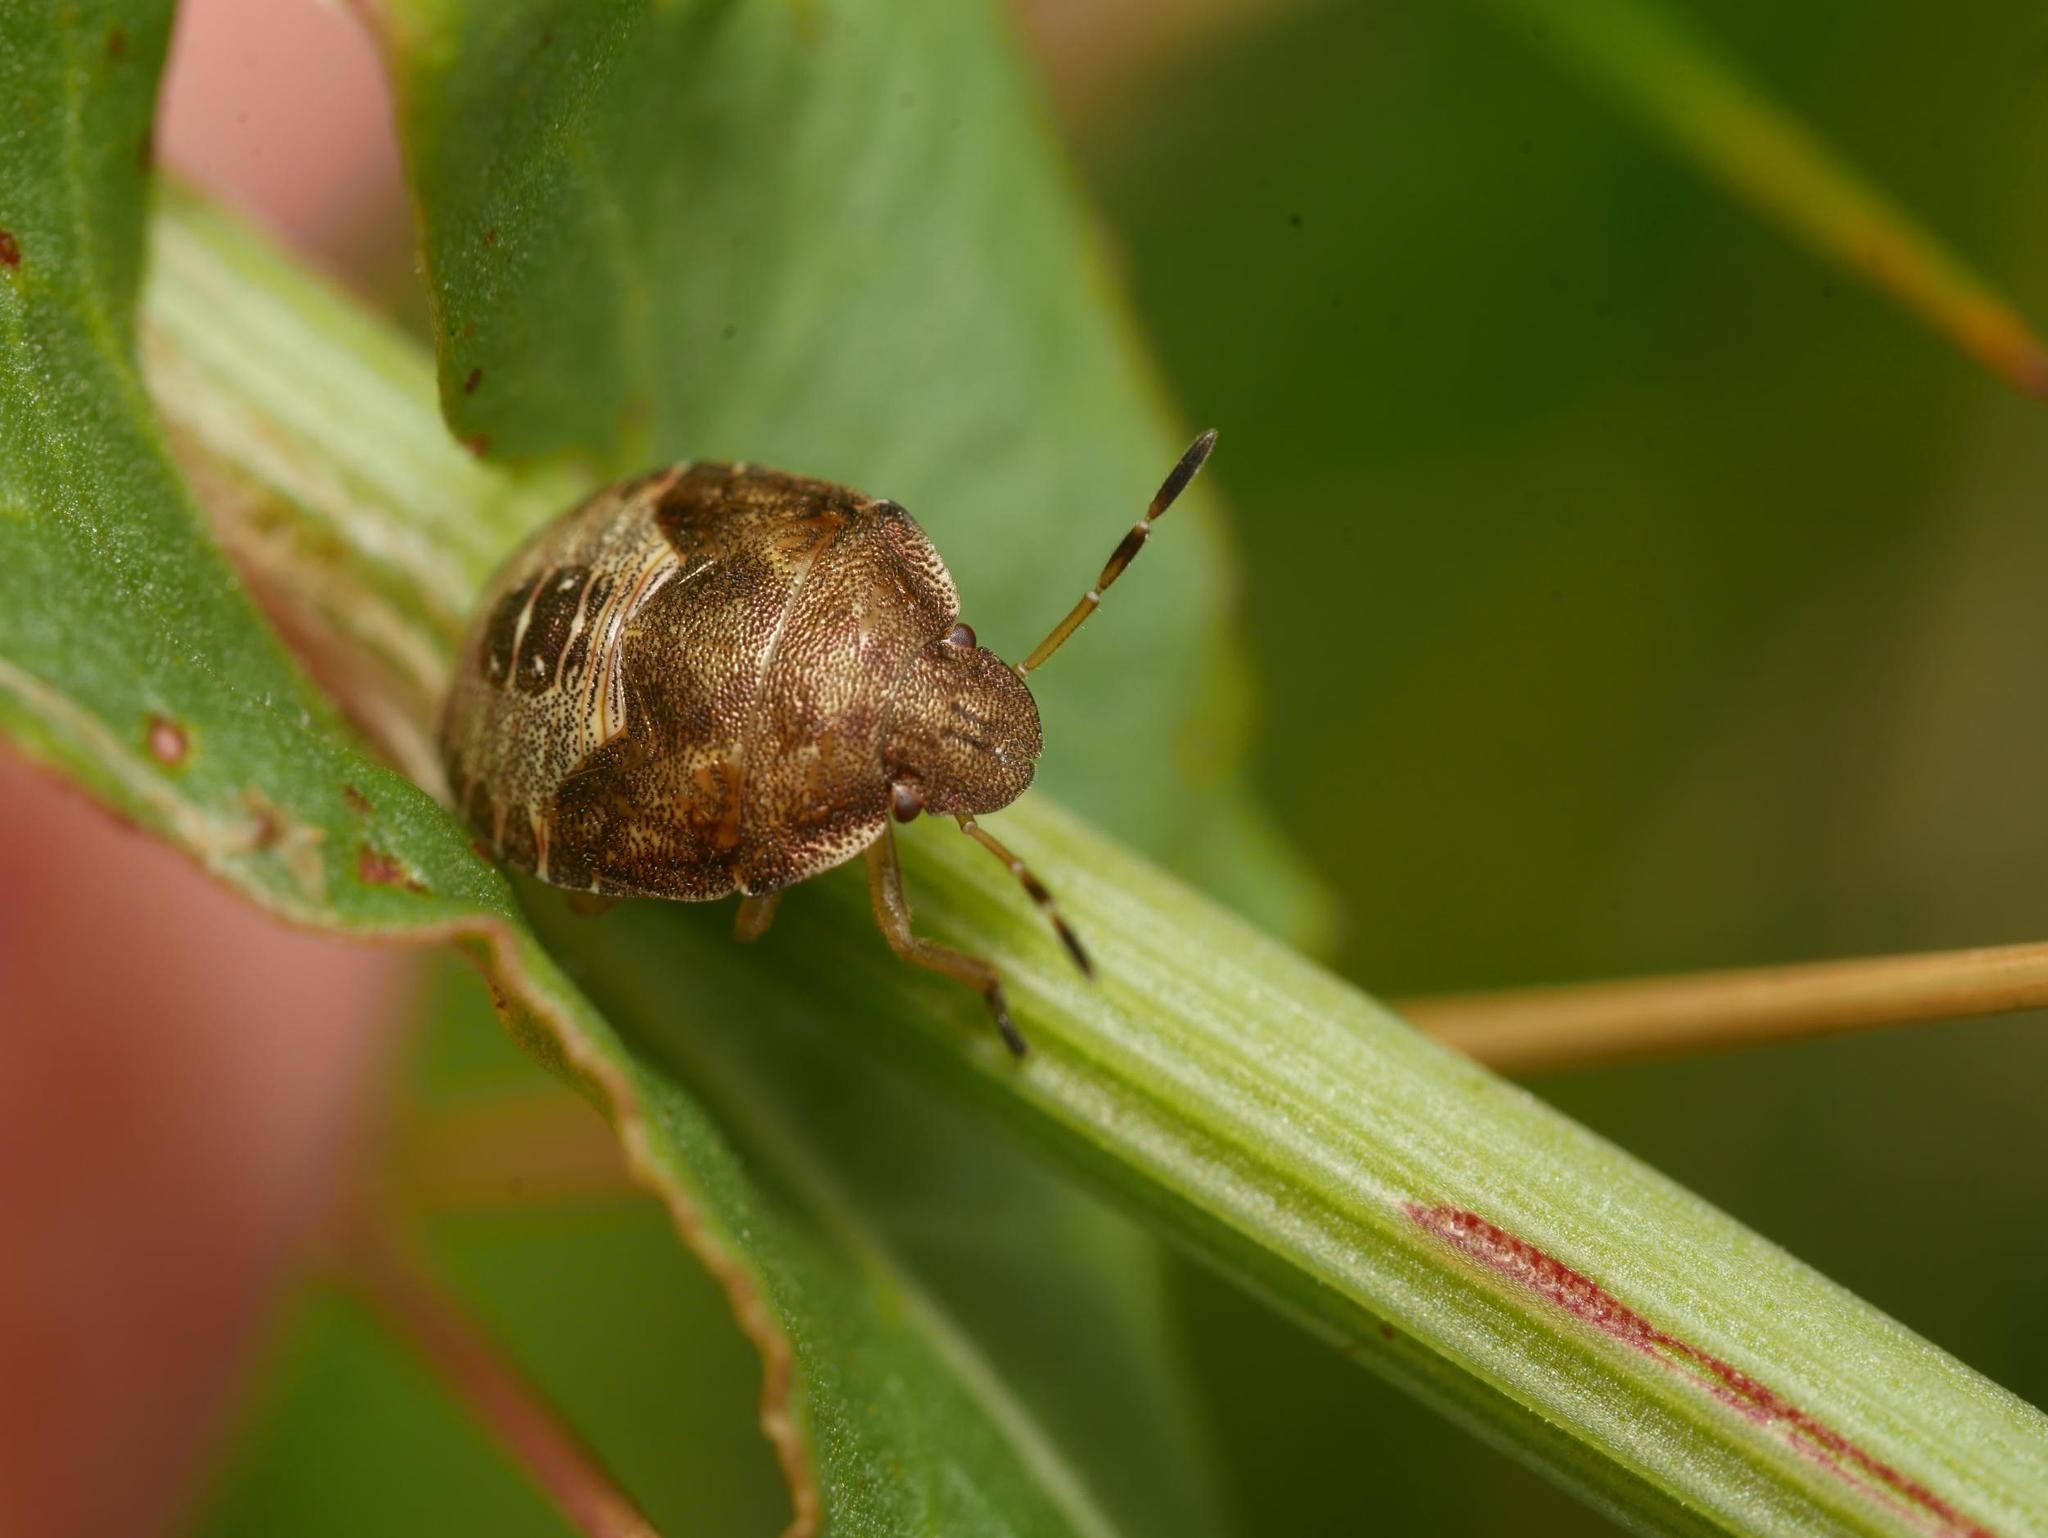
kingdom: Animalia
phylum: Arthropoda
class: Insecta
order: Hemiptera
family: Pentatomidae
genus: Holcostethus
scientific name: Holcostethus strictus
